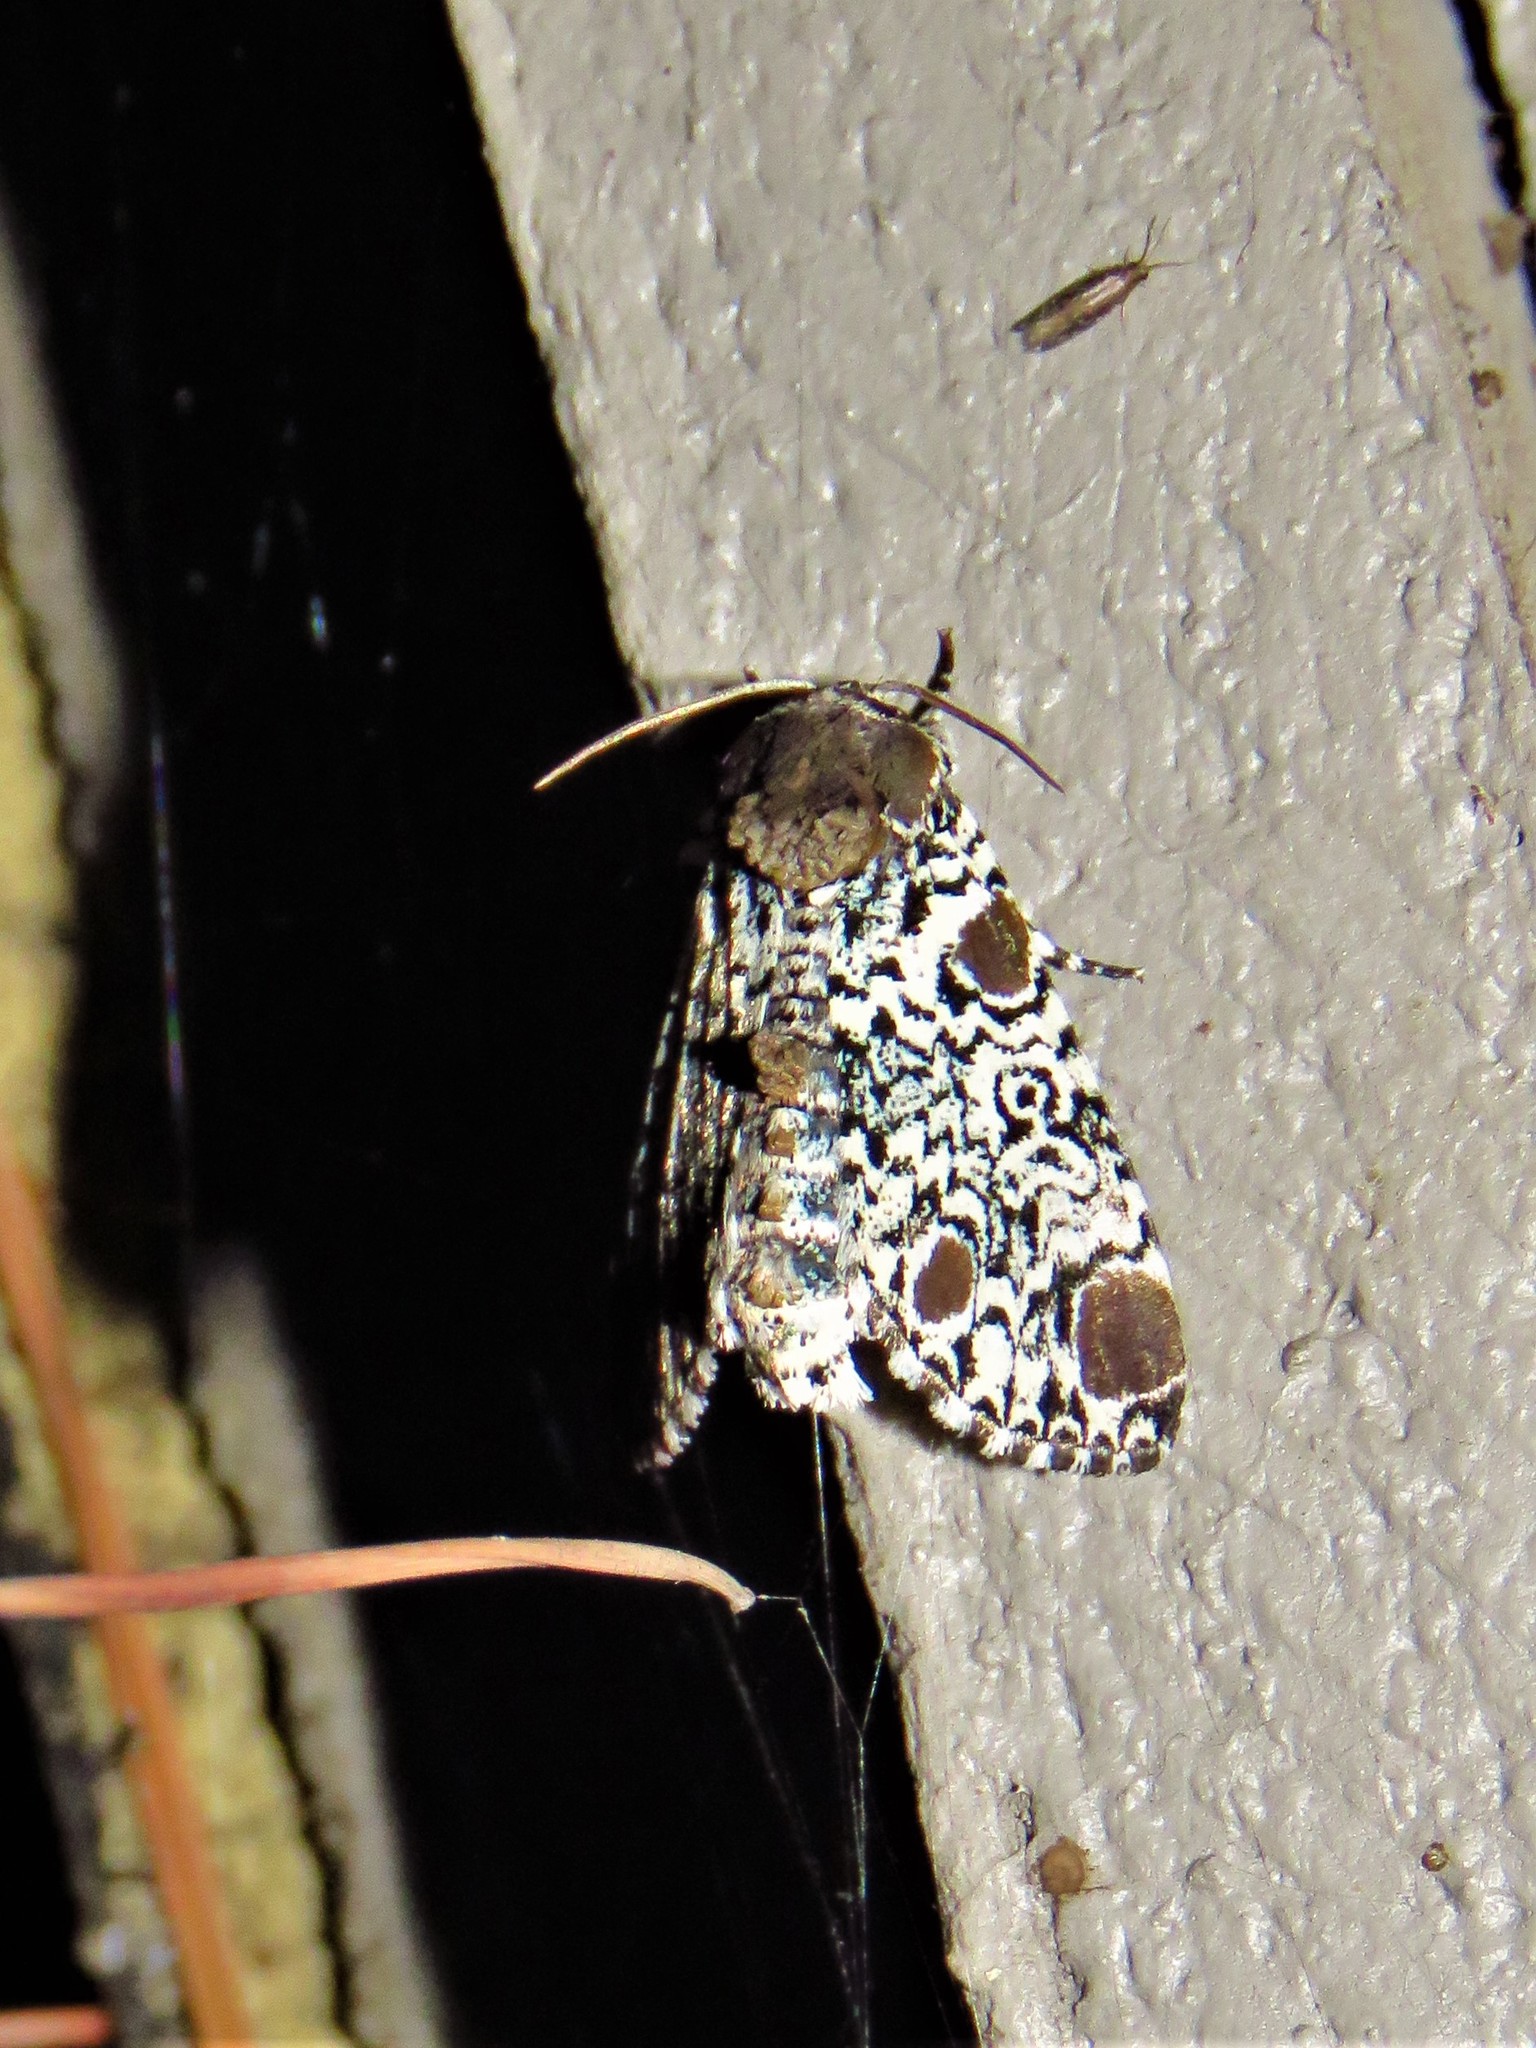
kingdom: Animalia
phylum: Arthropoda
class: Insecta
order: Lepidoptera
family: Noctuidae
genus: Harrisimemna
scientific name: Harrisimemna trisignata
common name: Harris threespot
